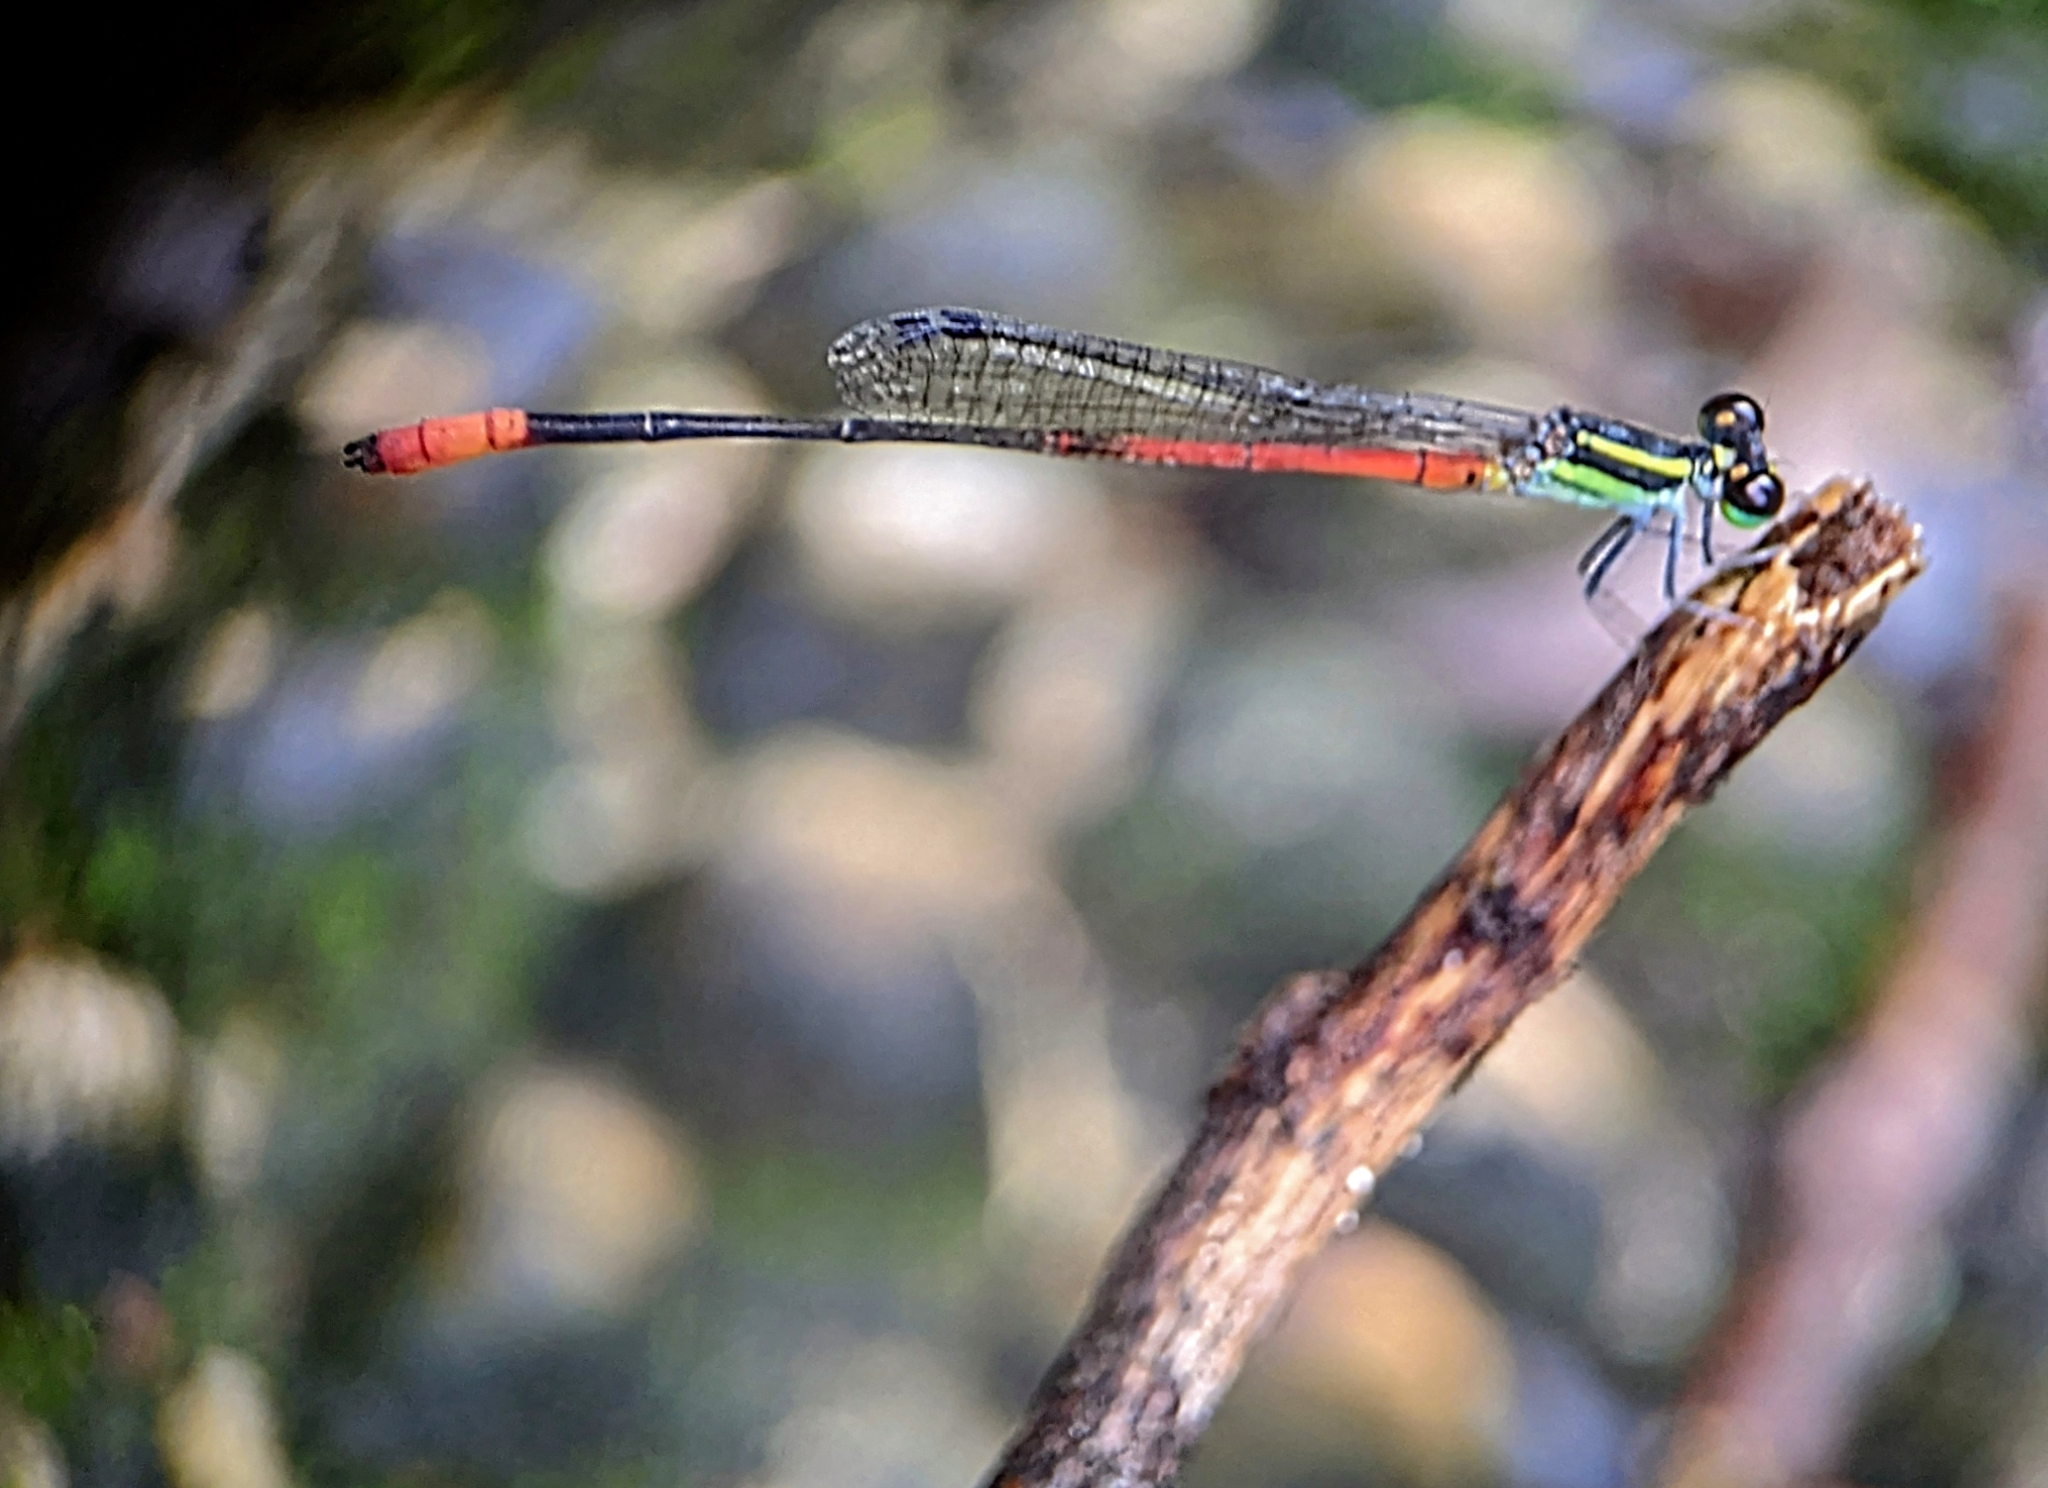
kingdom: Animalia
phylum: Arthropoda
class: Insecta
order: Odonata
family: Coenagrionidae
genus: Argiocnemis
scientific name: Argiocnemis rubescens
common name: Red-tipped shadefly
